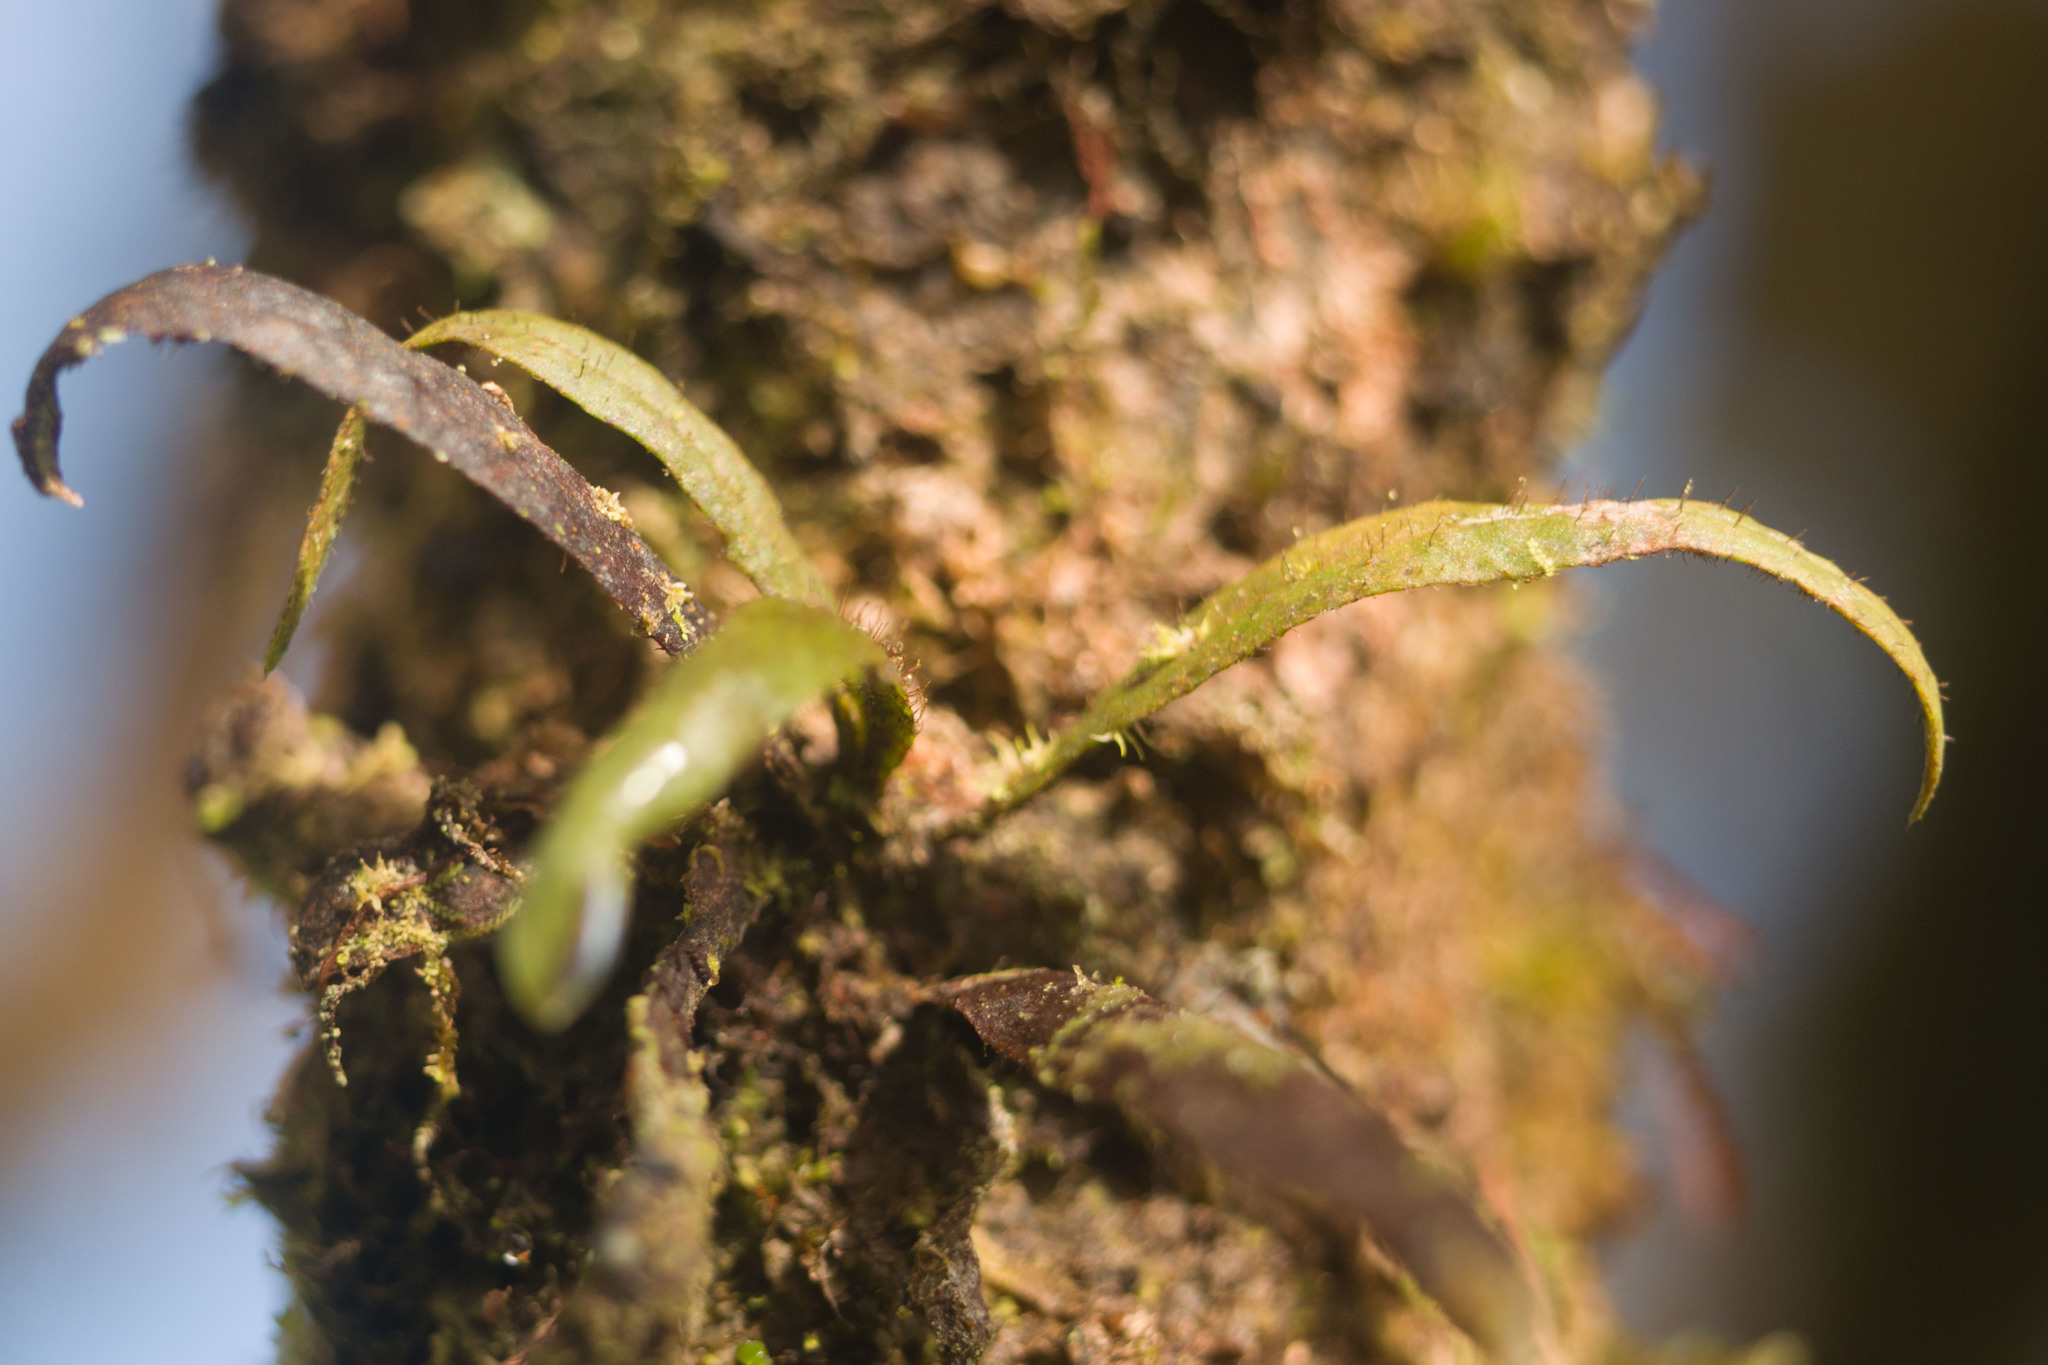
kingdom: Plantae
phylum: Tracheophyta
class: Polypodiopsida
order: Polypodiales
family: Polypodiaceae
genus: Oreogrammitis
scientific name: Oreogrammitis hookeri
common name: Hooker's dwarf polypody
